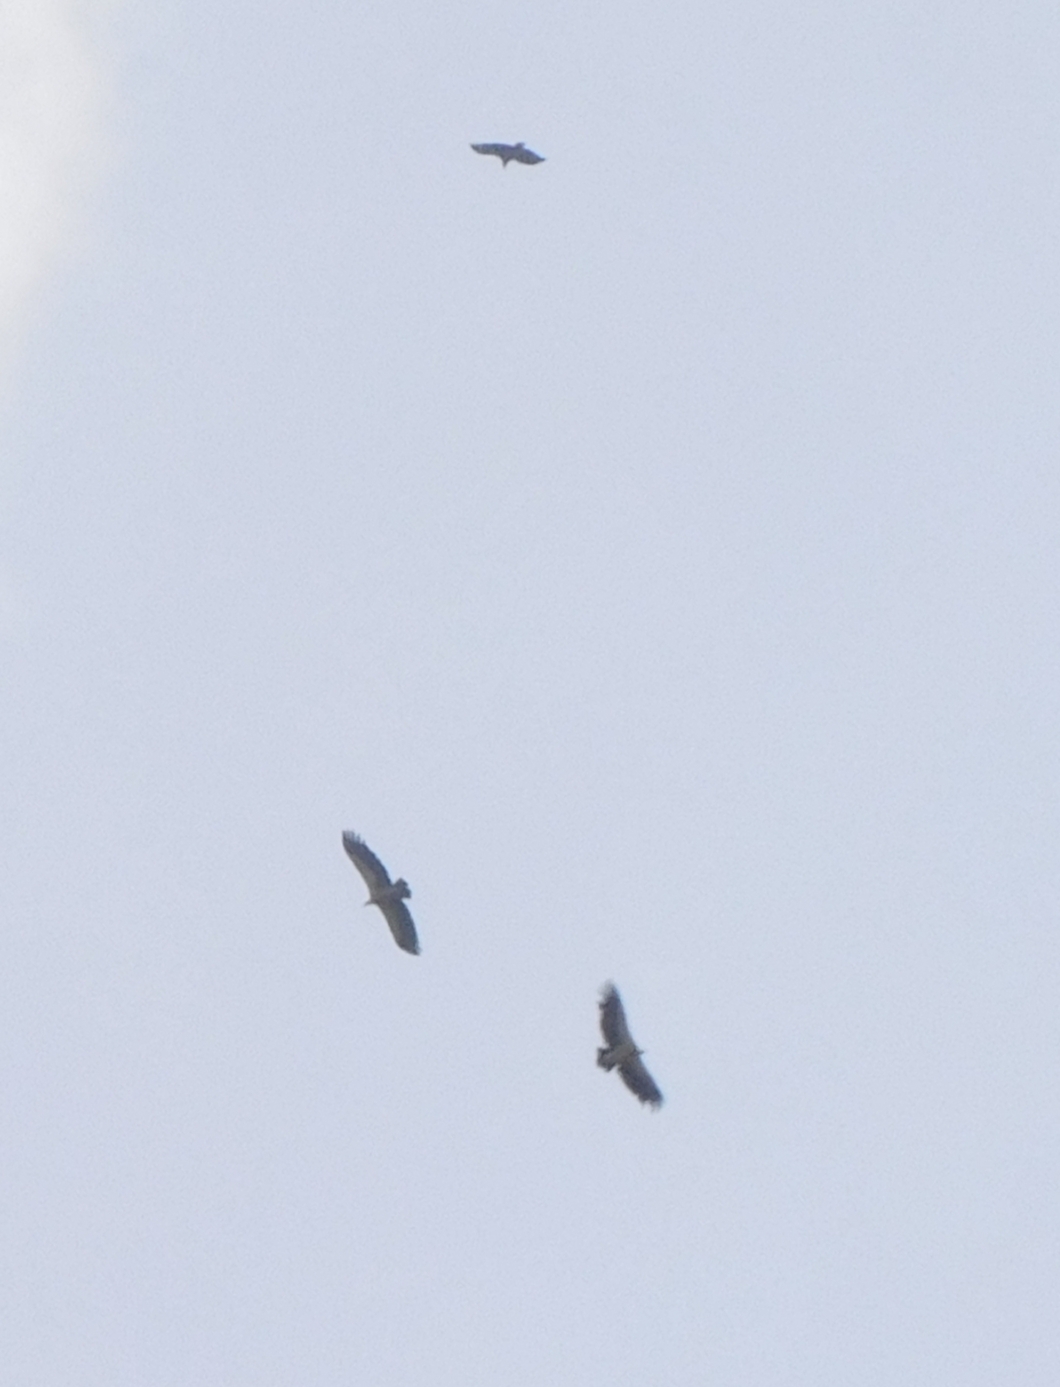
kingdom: Animalia
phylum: Chordata
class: Aves
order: Accipitriformes
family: Accipitridae
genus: Gyps
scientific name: Gyps himalayensis
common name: Himalayan griffon
